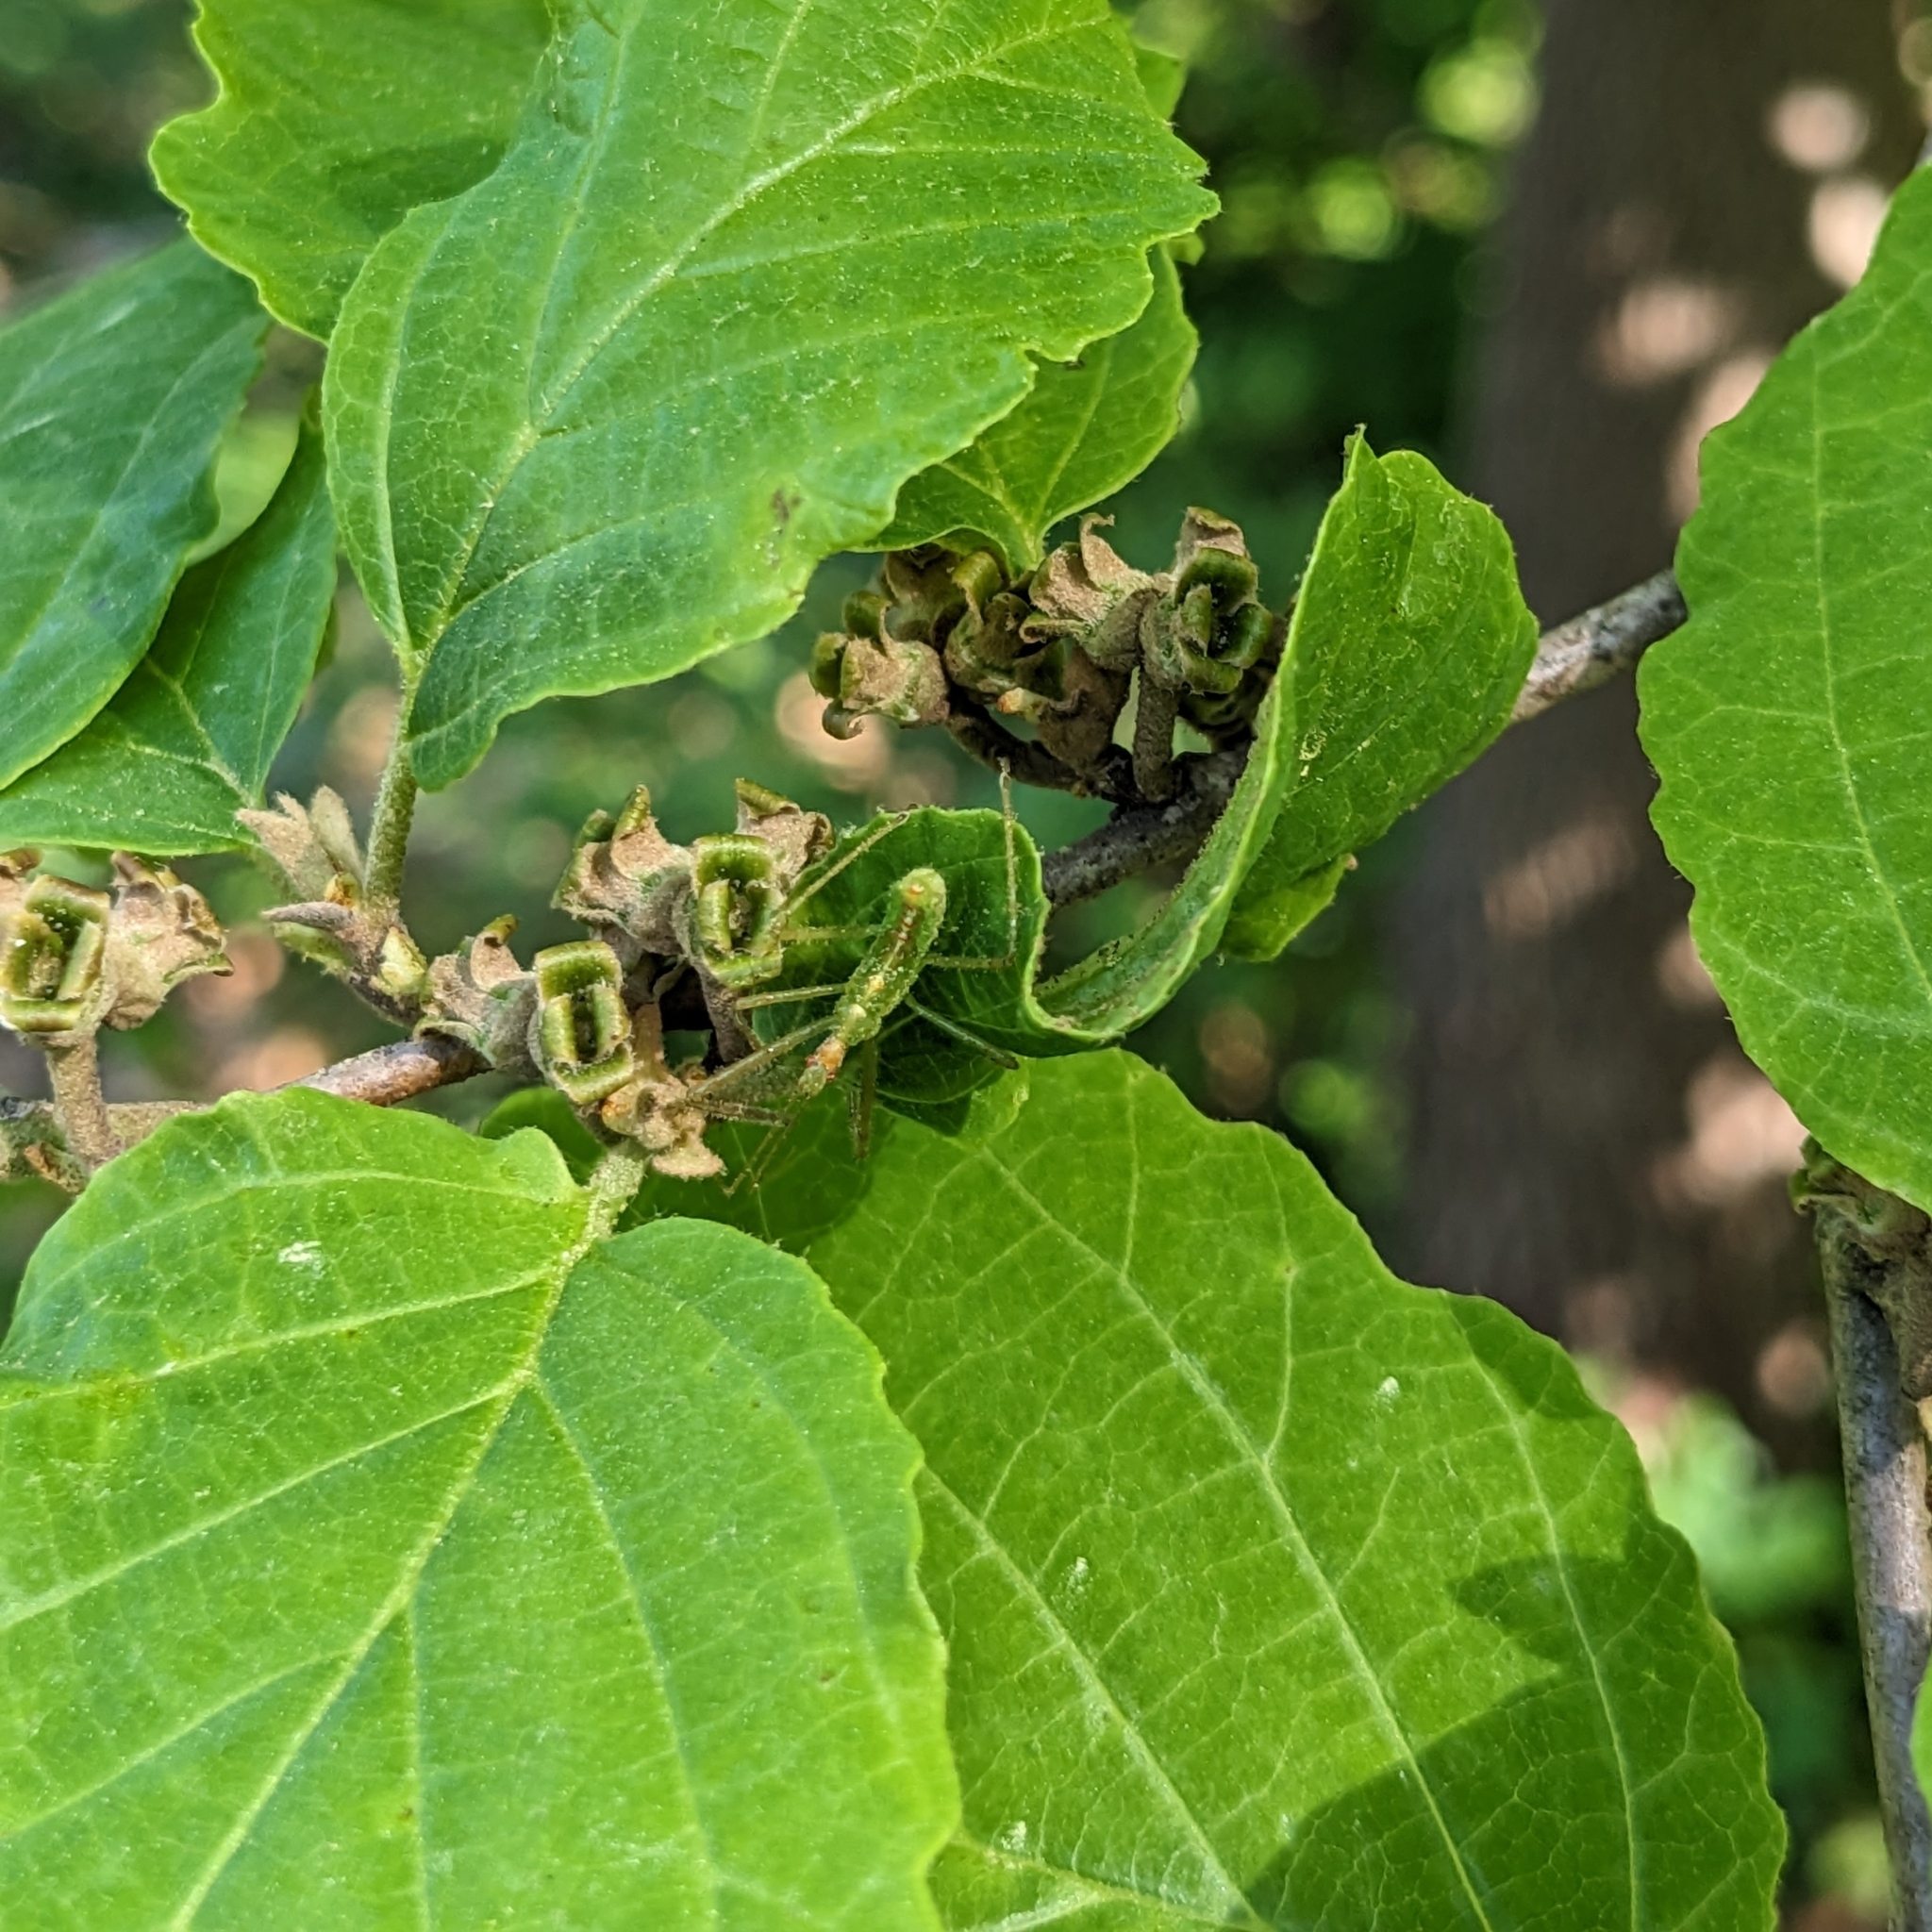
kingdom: Animalia
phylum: Arthropoda
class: Insecta
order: Hemiptera
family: Reduviidae
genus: Zelus
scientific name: Zelus luridus
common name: Pale green assassin bug
